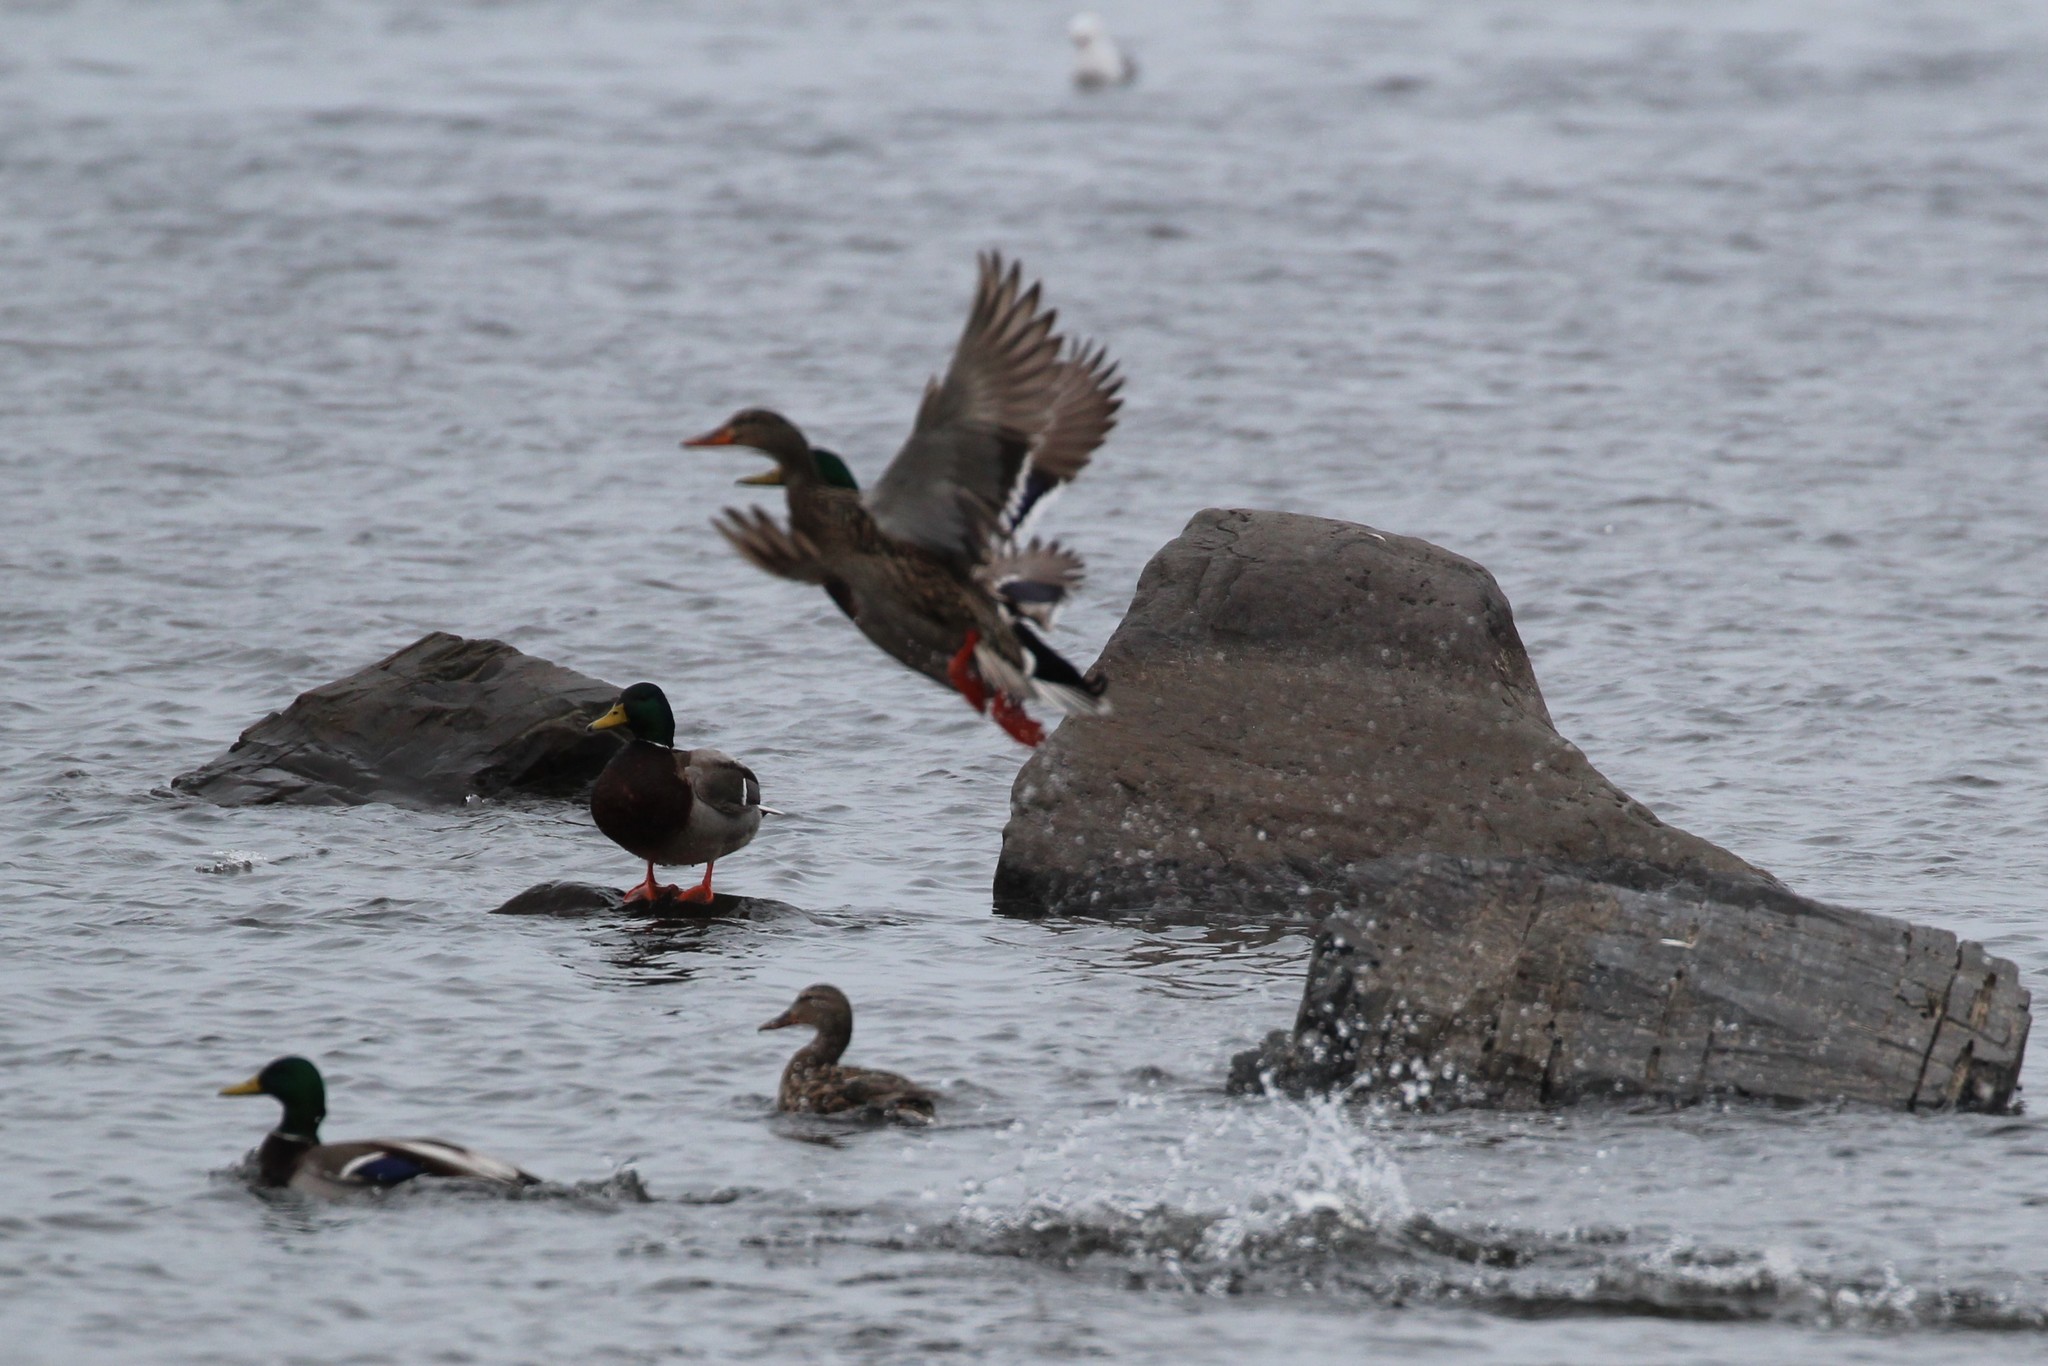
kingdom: Animalia
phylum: Chordata
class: Aves
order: Anseriformes
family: Anatidae
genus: Anas
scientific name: Anas platyrhynchos
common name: Mallard
